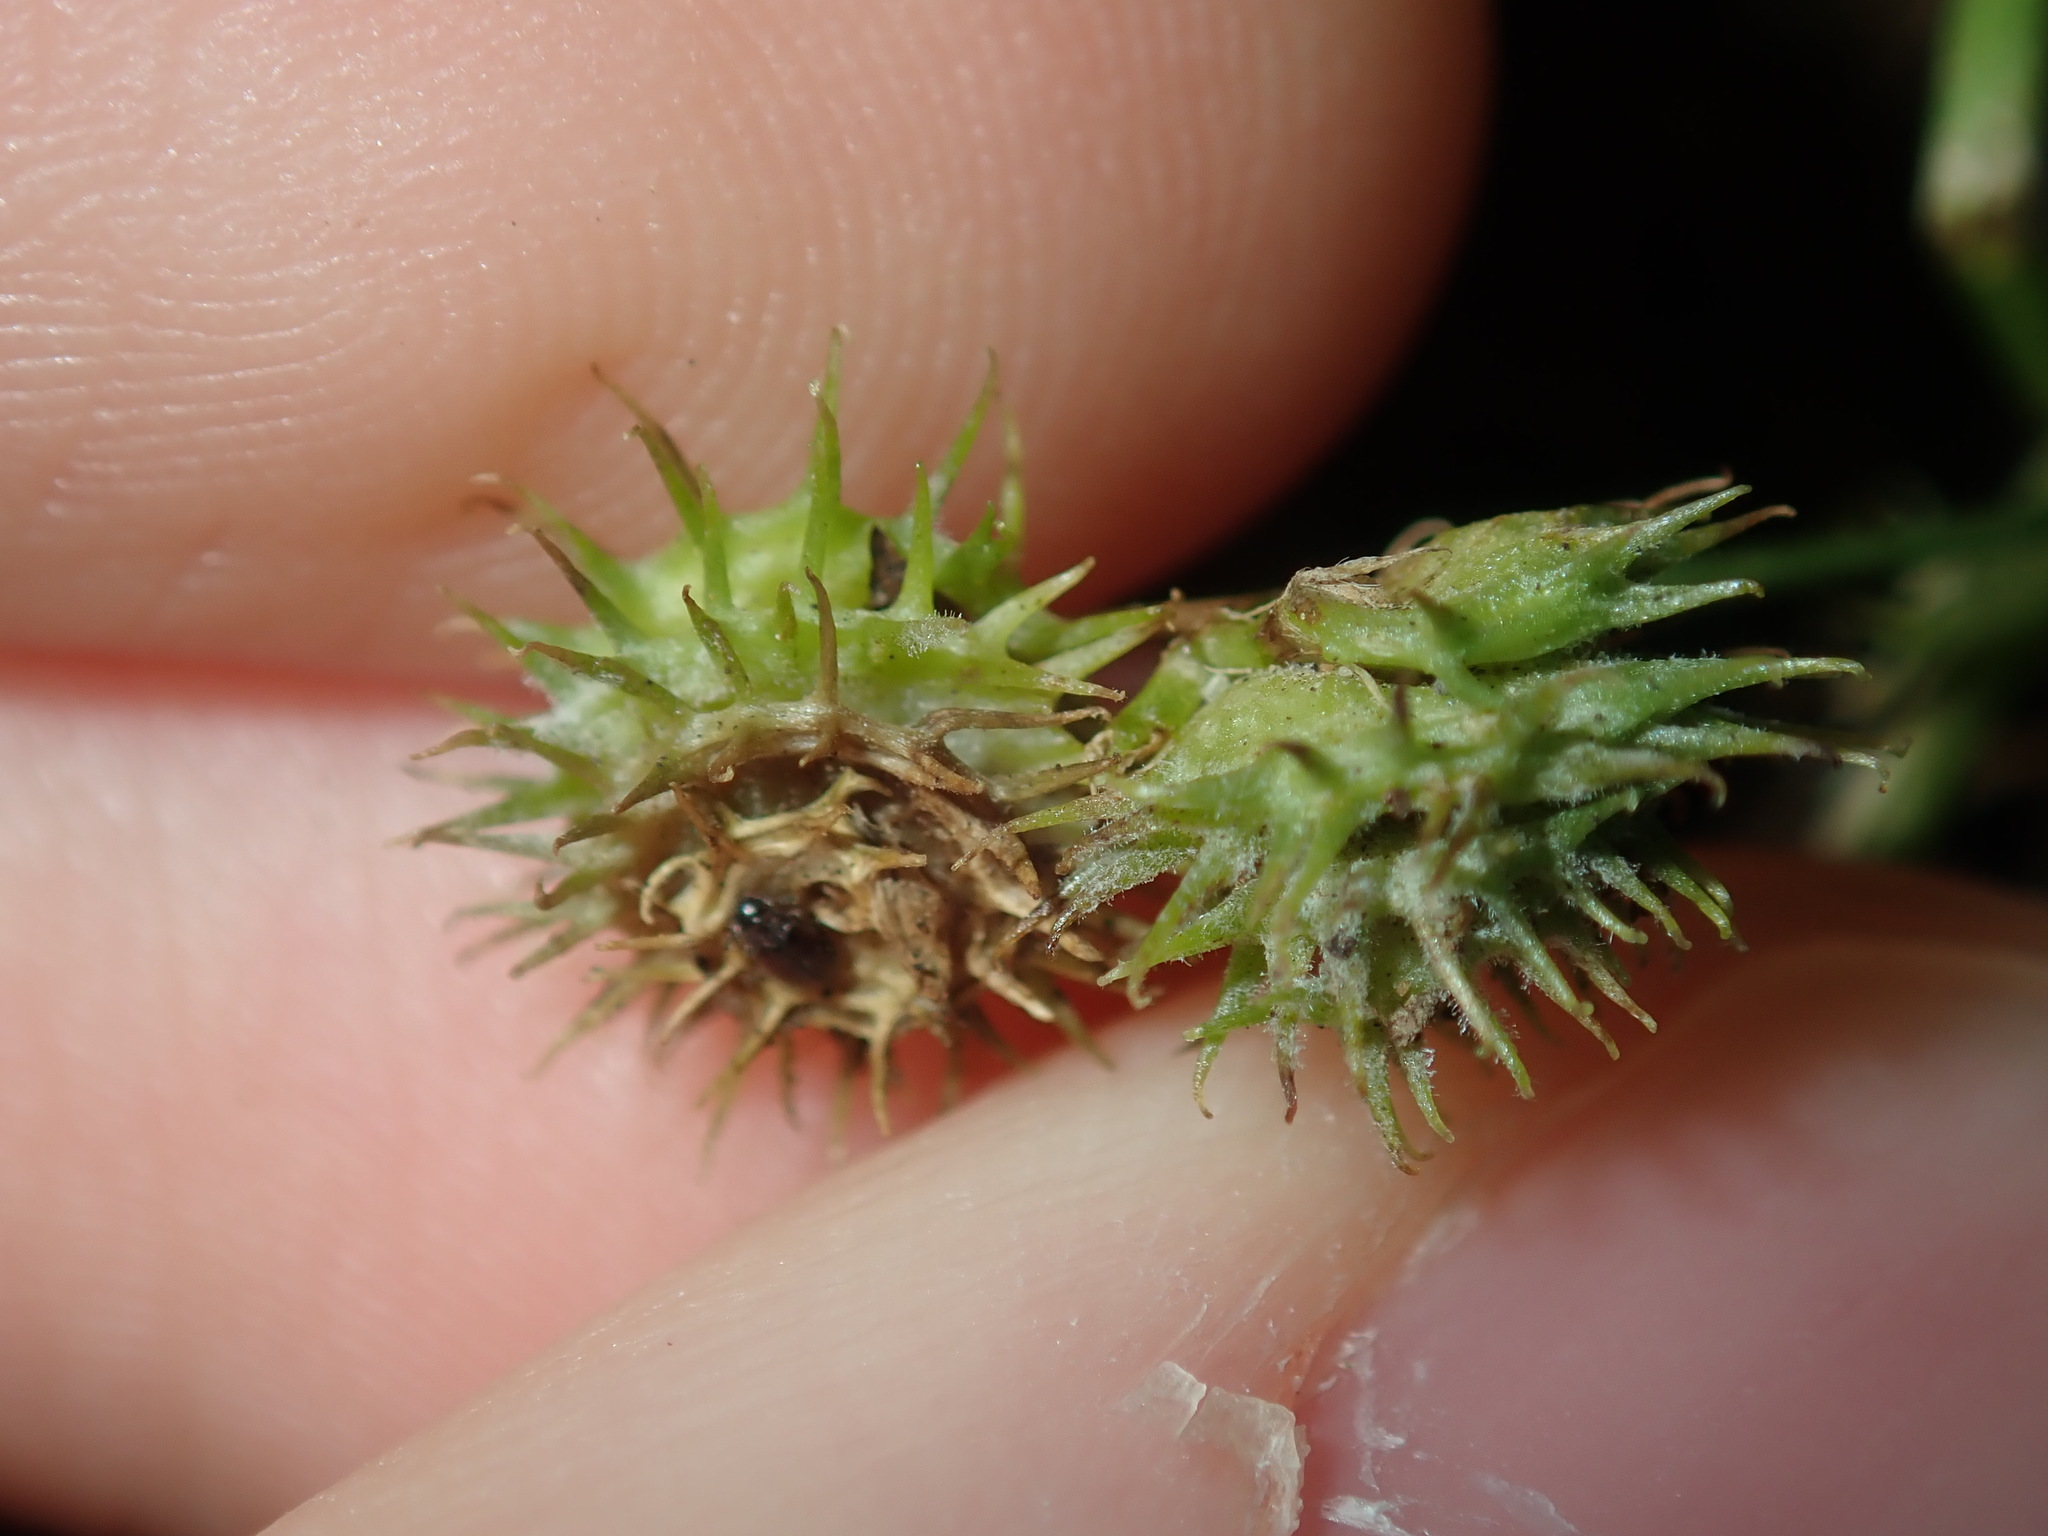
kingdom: Plantae
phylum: Tracheophyta
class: Magnoliopsida
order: Fabales
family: Fabaceae
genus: Medicago
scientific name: Medicago polymorpha
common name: Burclover
